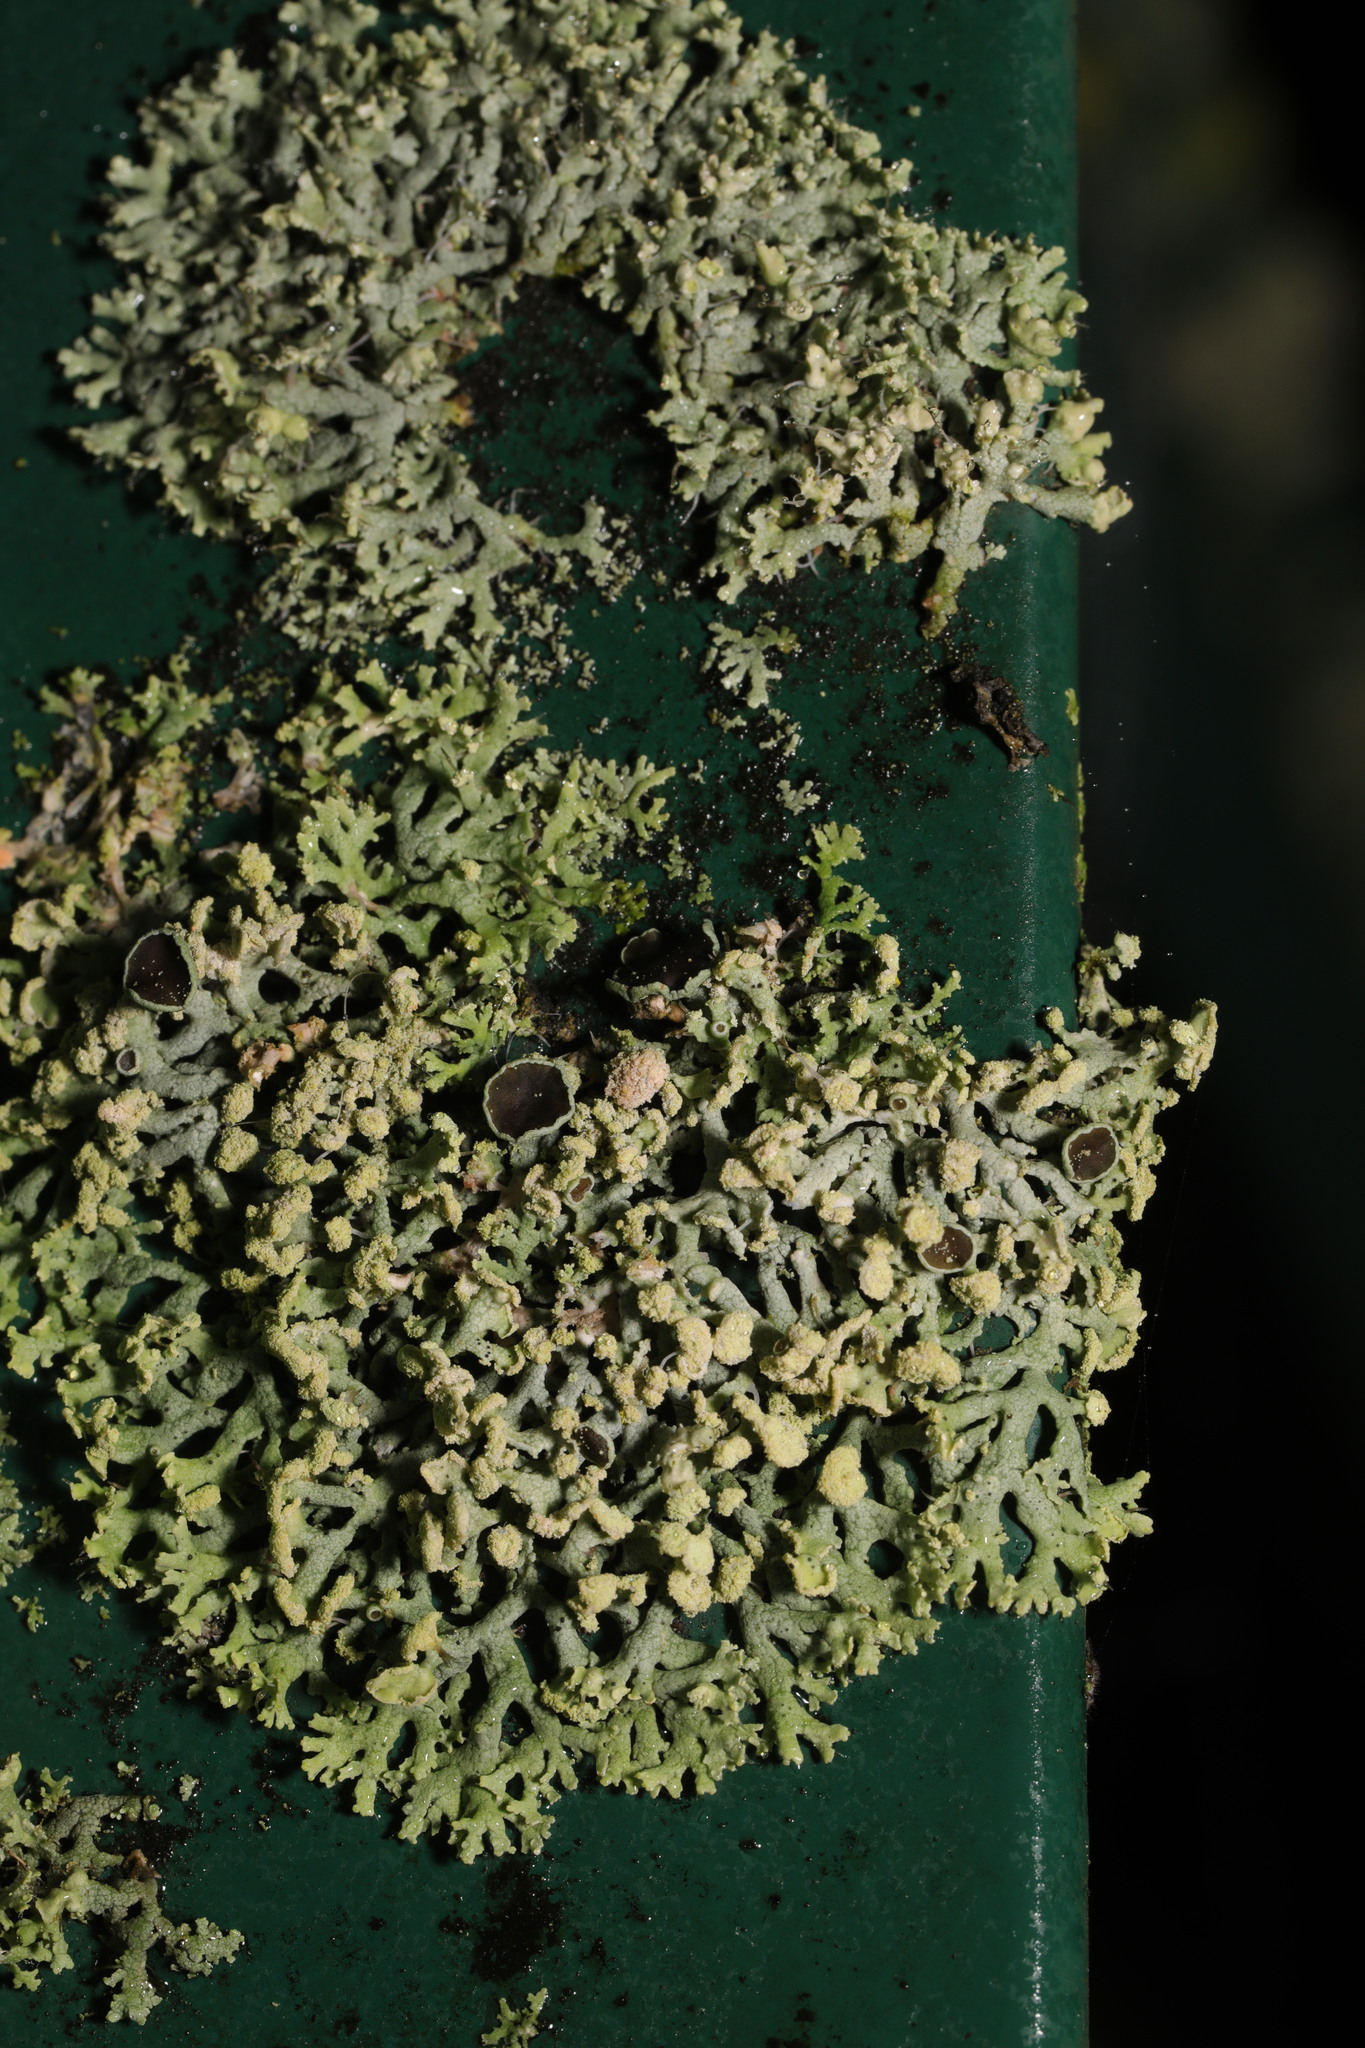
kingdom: Fungi
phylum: Ascomycota
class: Lecanoromycetes
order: Caliciales
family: Physciaceae
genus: Physcia
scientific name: Physcia dubia
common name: Powder-tipped rosette lichen
